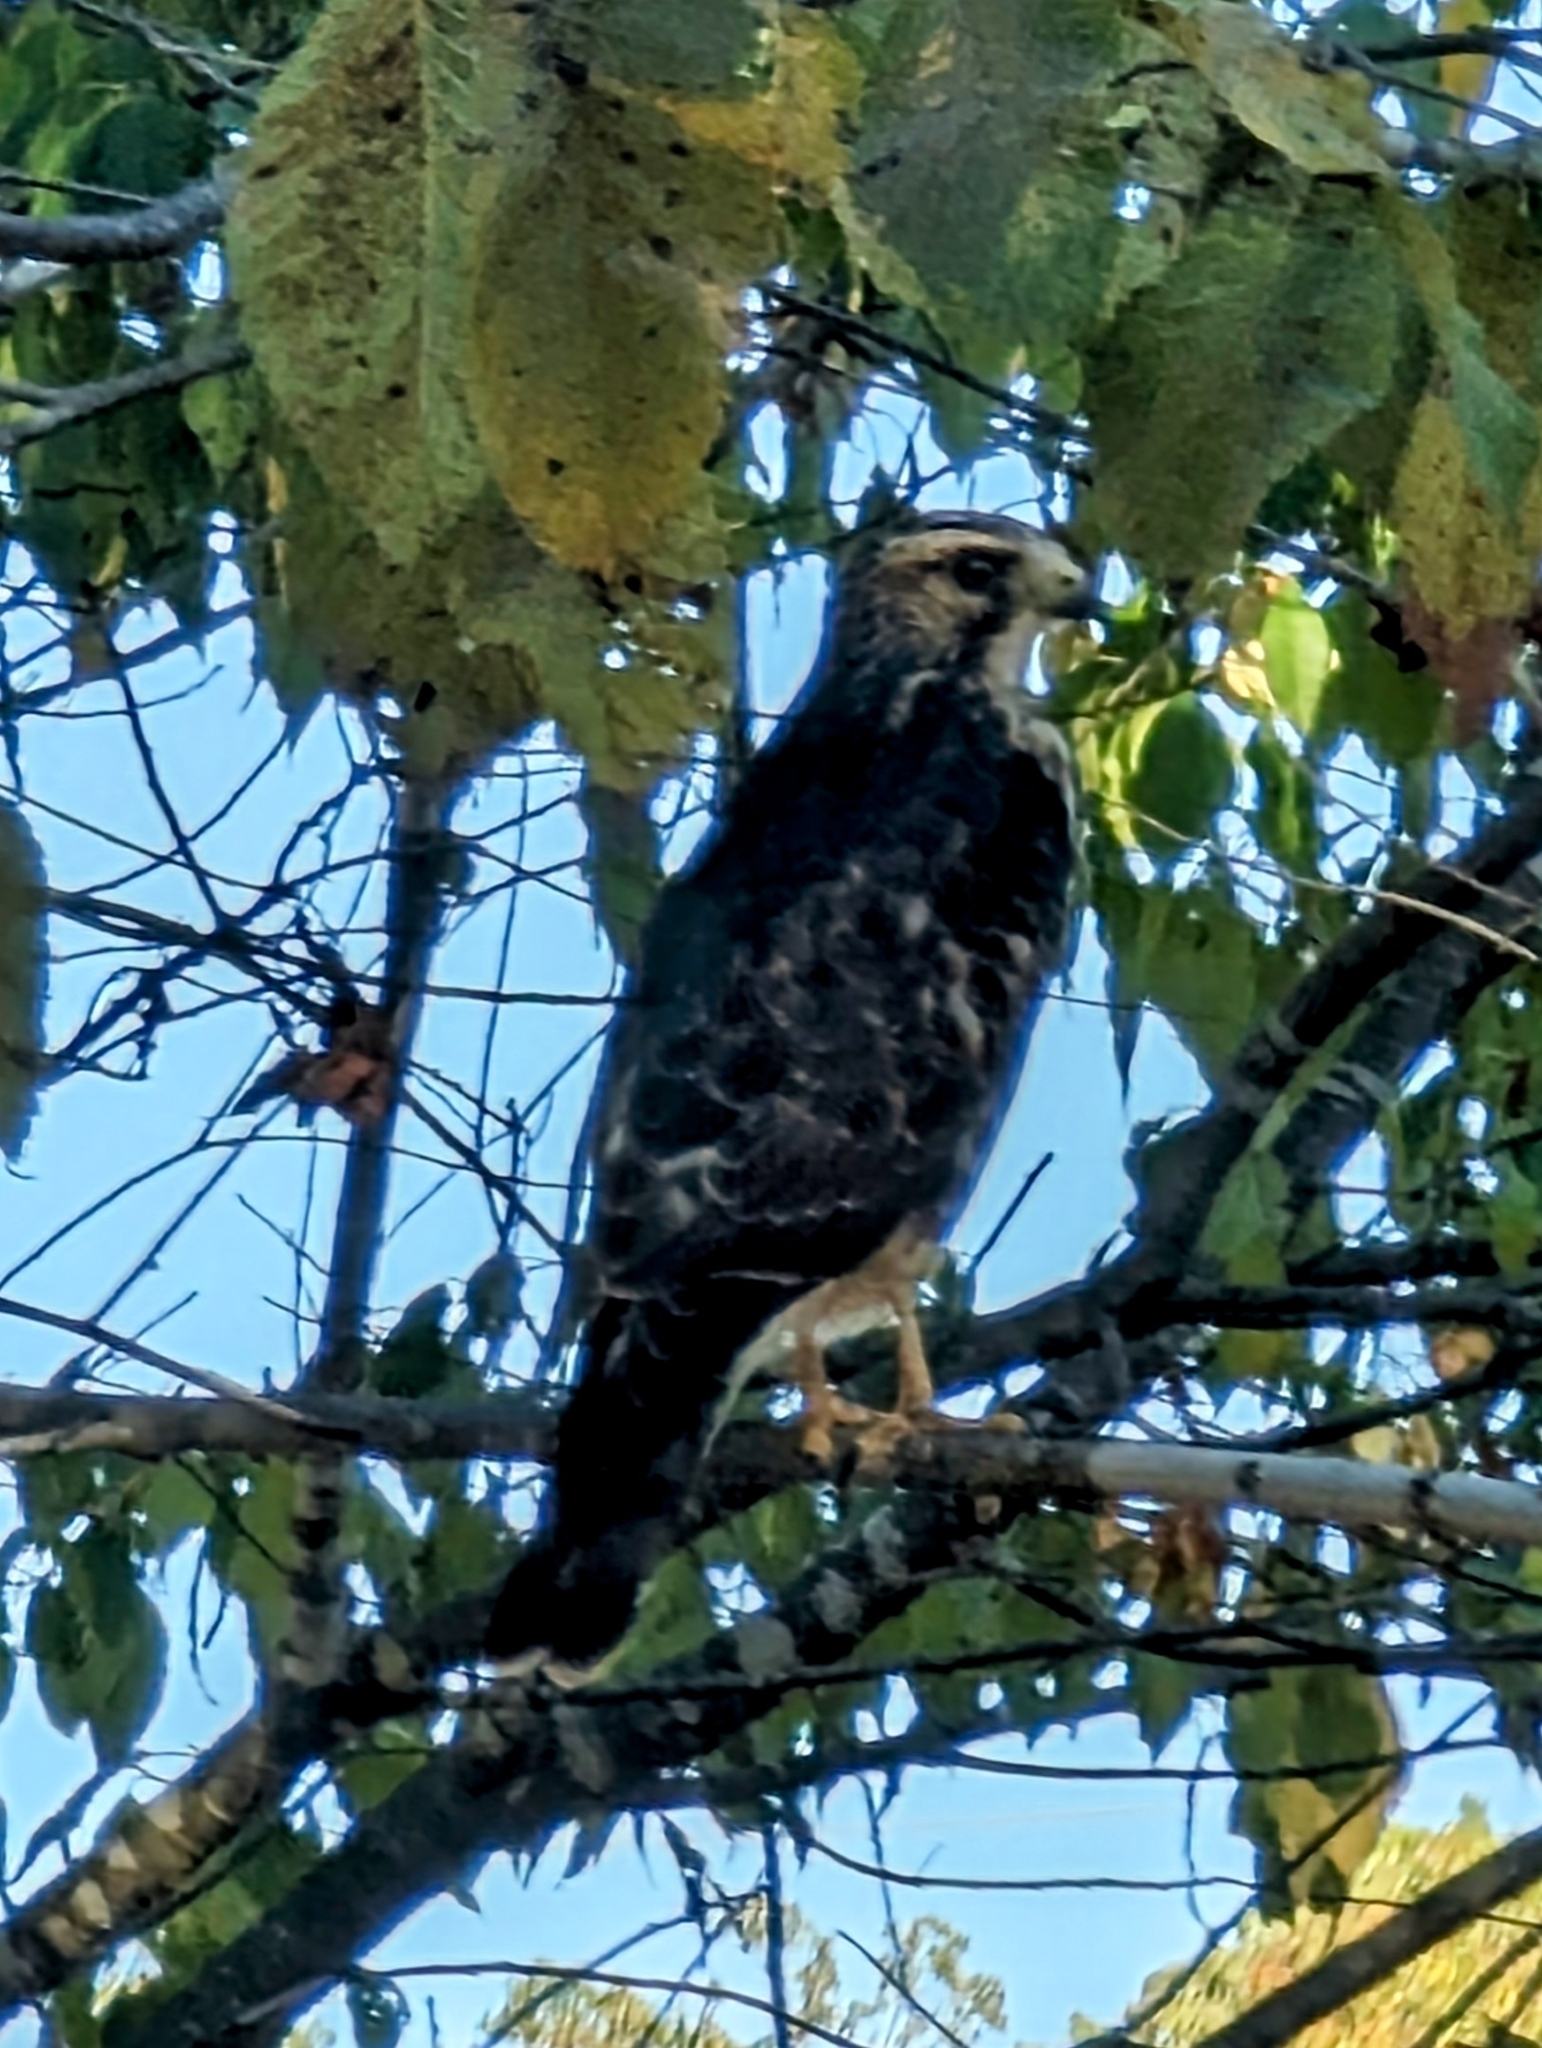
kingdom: Animalia
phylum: Chordata
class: Aves
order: Accipitriformes
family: Accipitridae
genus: Buteo
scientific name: Buteo platypterus
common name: Broad-winged hawk
